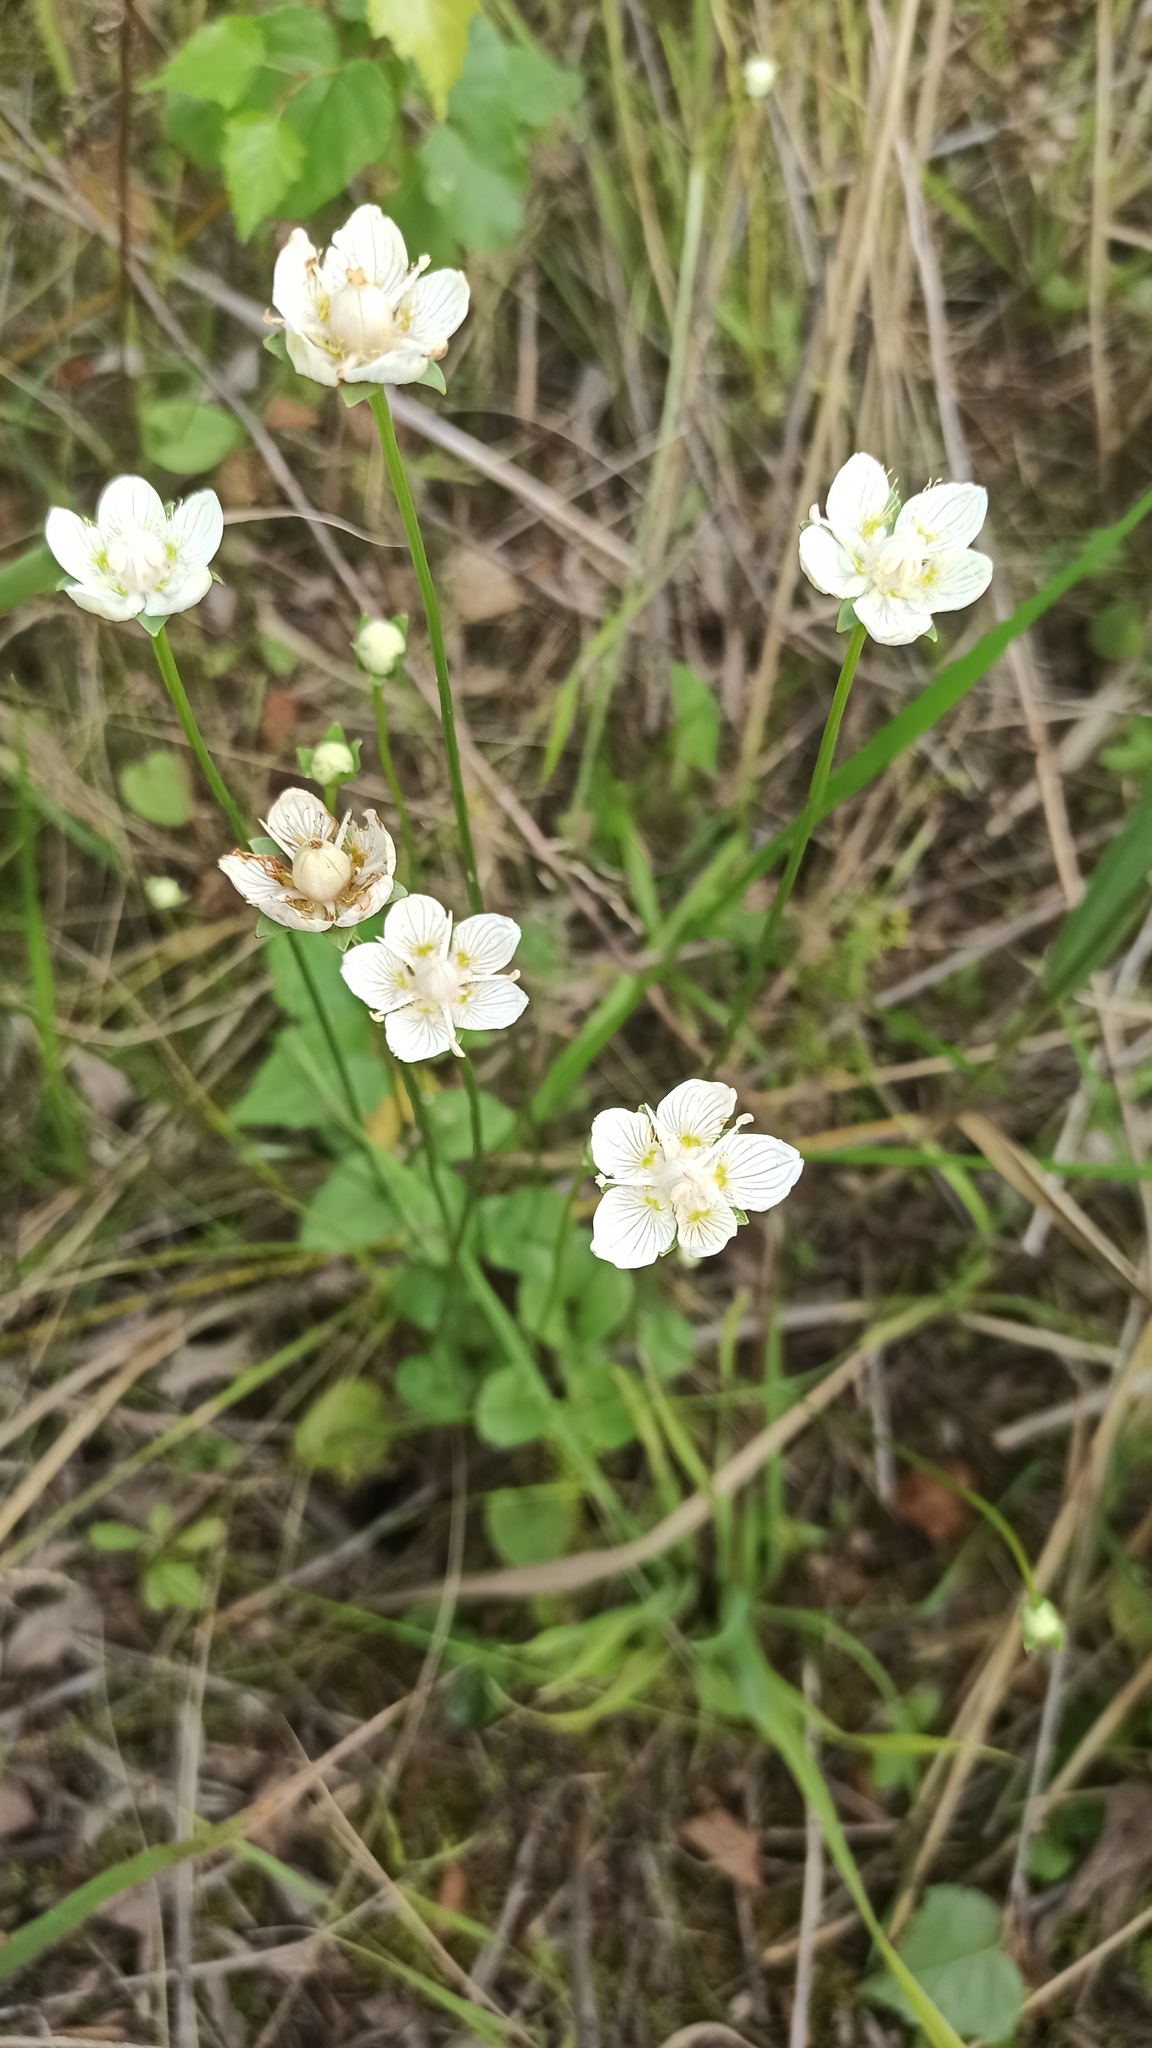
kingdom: Plantae
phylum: Tracheophyta
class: Magnoliopsida
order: Celastrales
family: Parnassiaceae
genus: Parnassia
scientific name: Parnassia palustris
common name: Grass-of-parnassus
